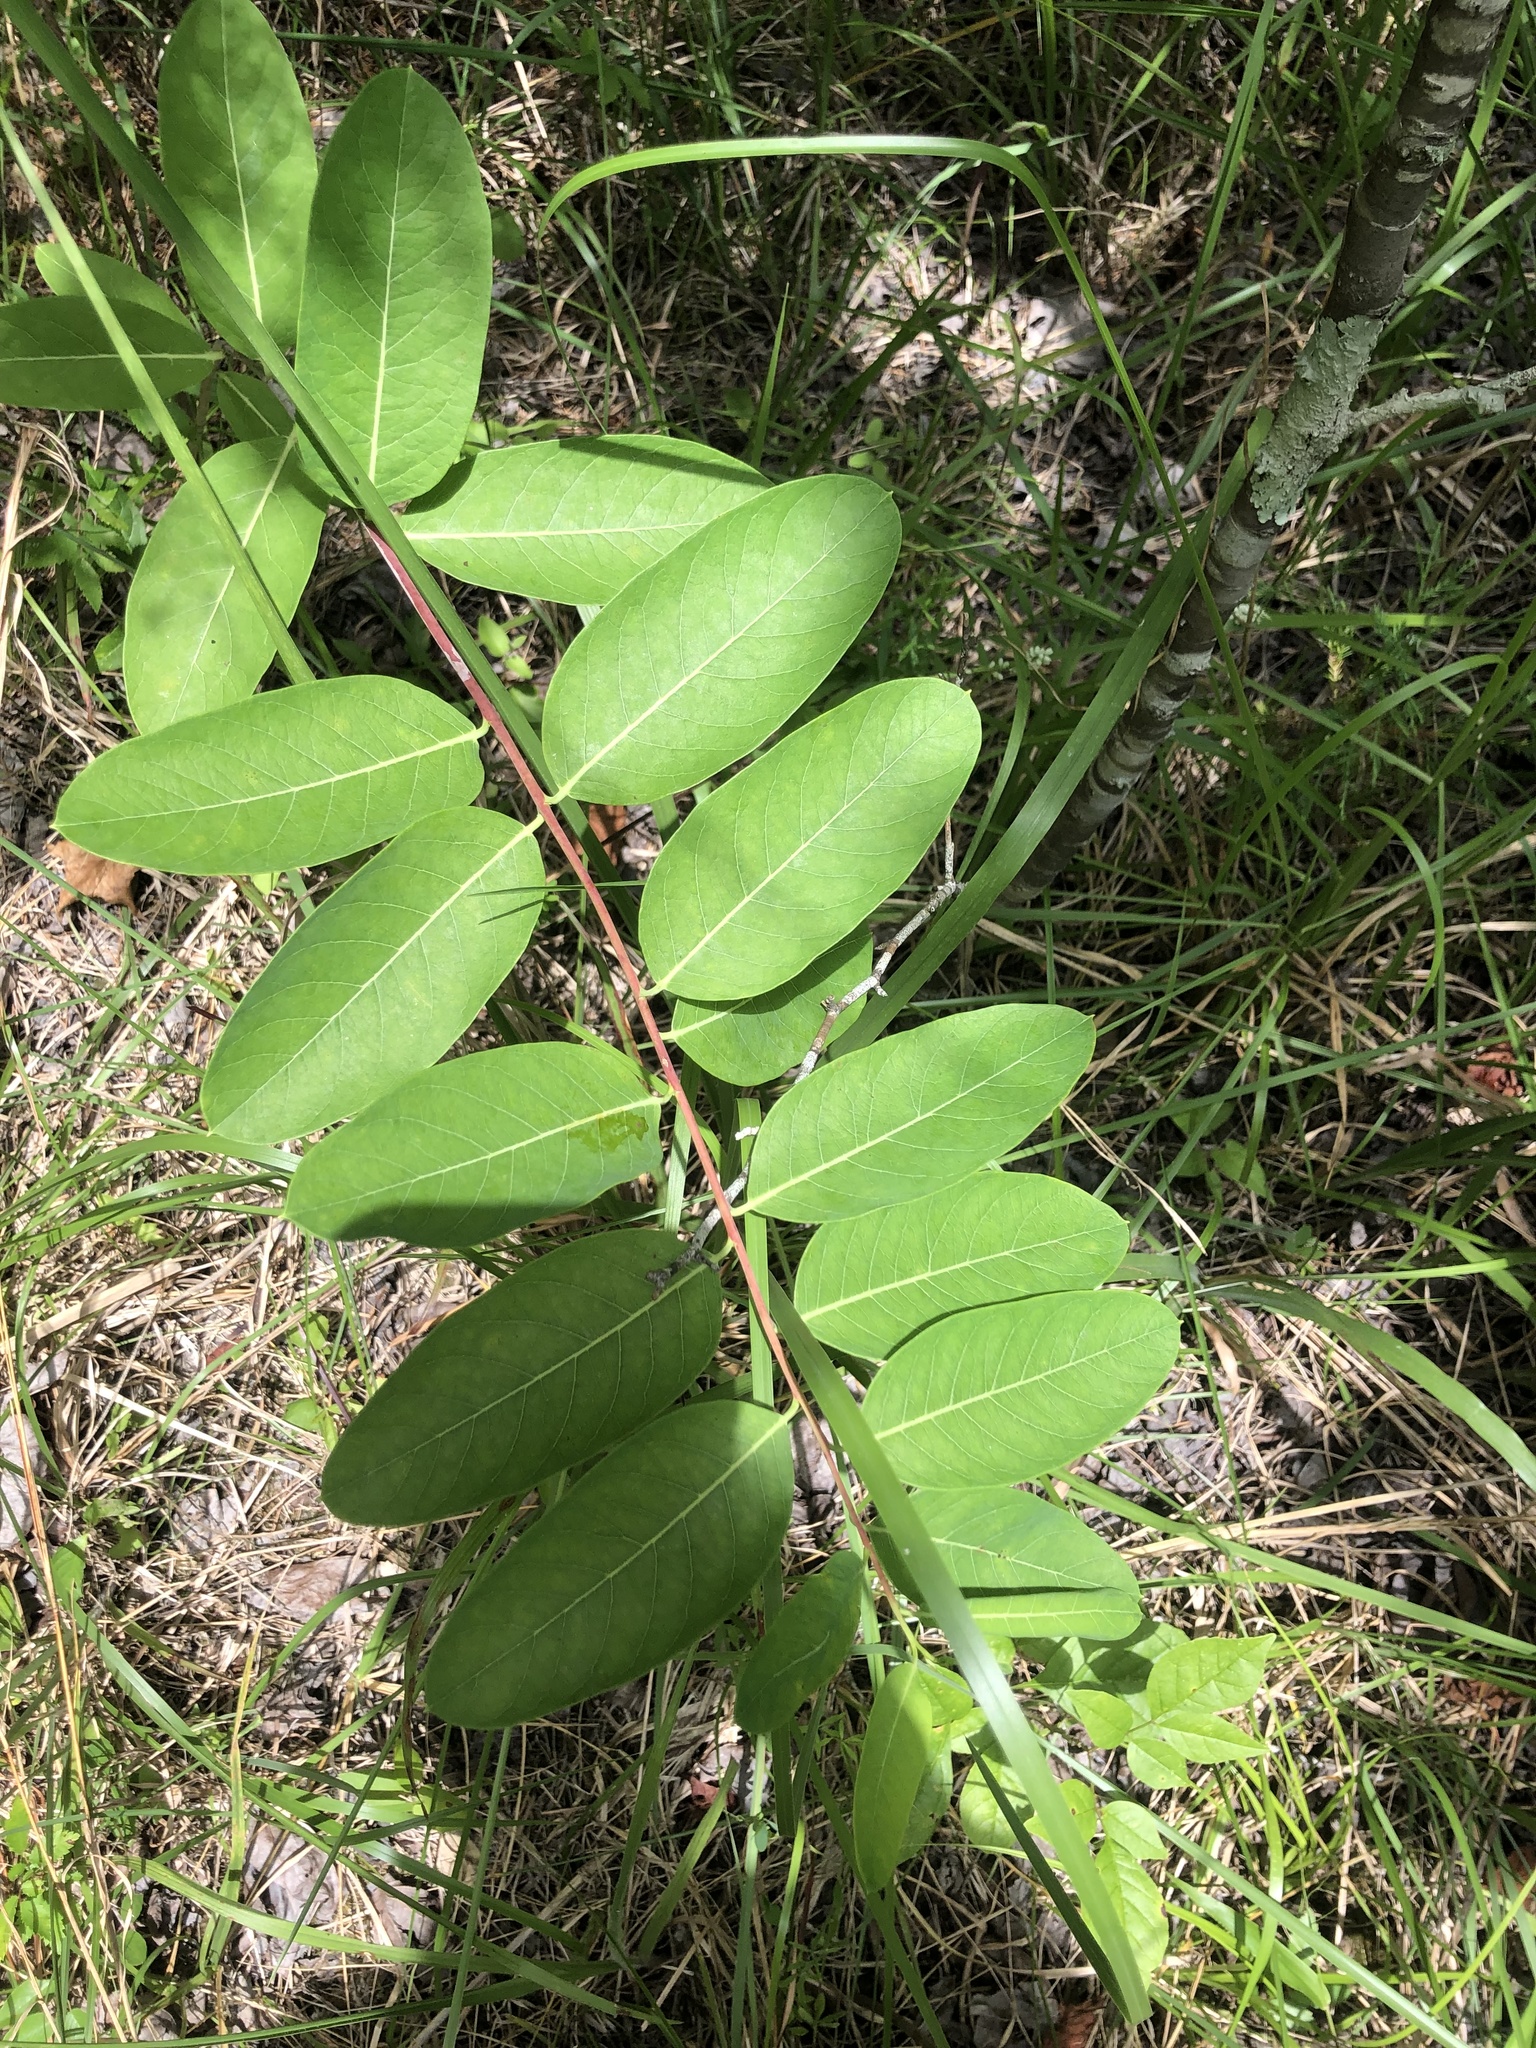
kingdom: Plantae
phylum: Tracheophyta
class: Magnoliopsida
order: Gentianales
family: Apocynaceae
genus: Apocynum
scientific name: Apocynum cannabinum
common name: Hemp dogbane
